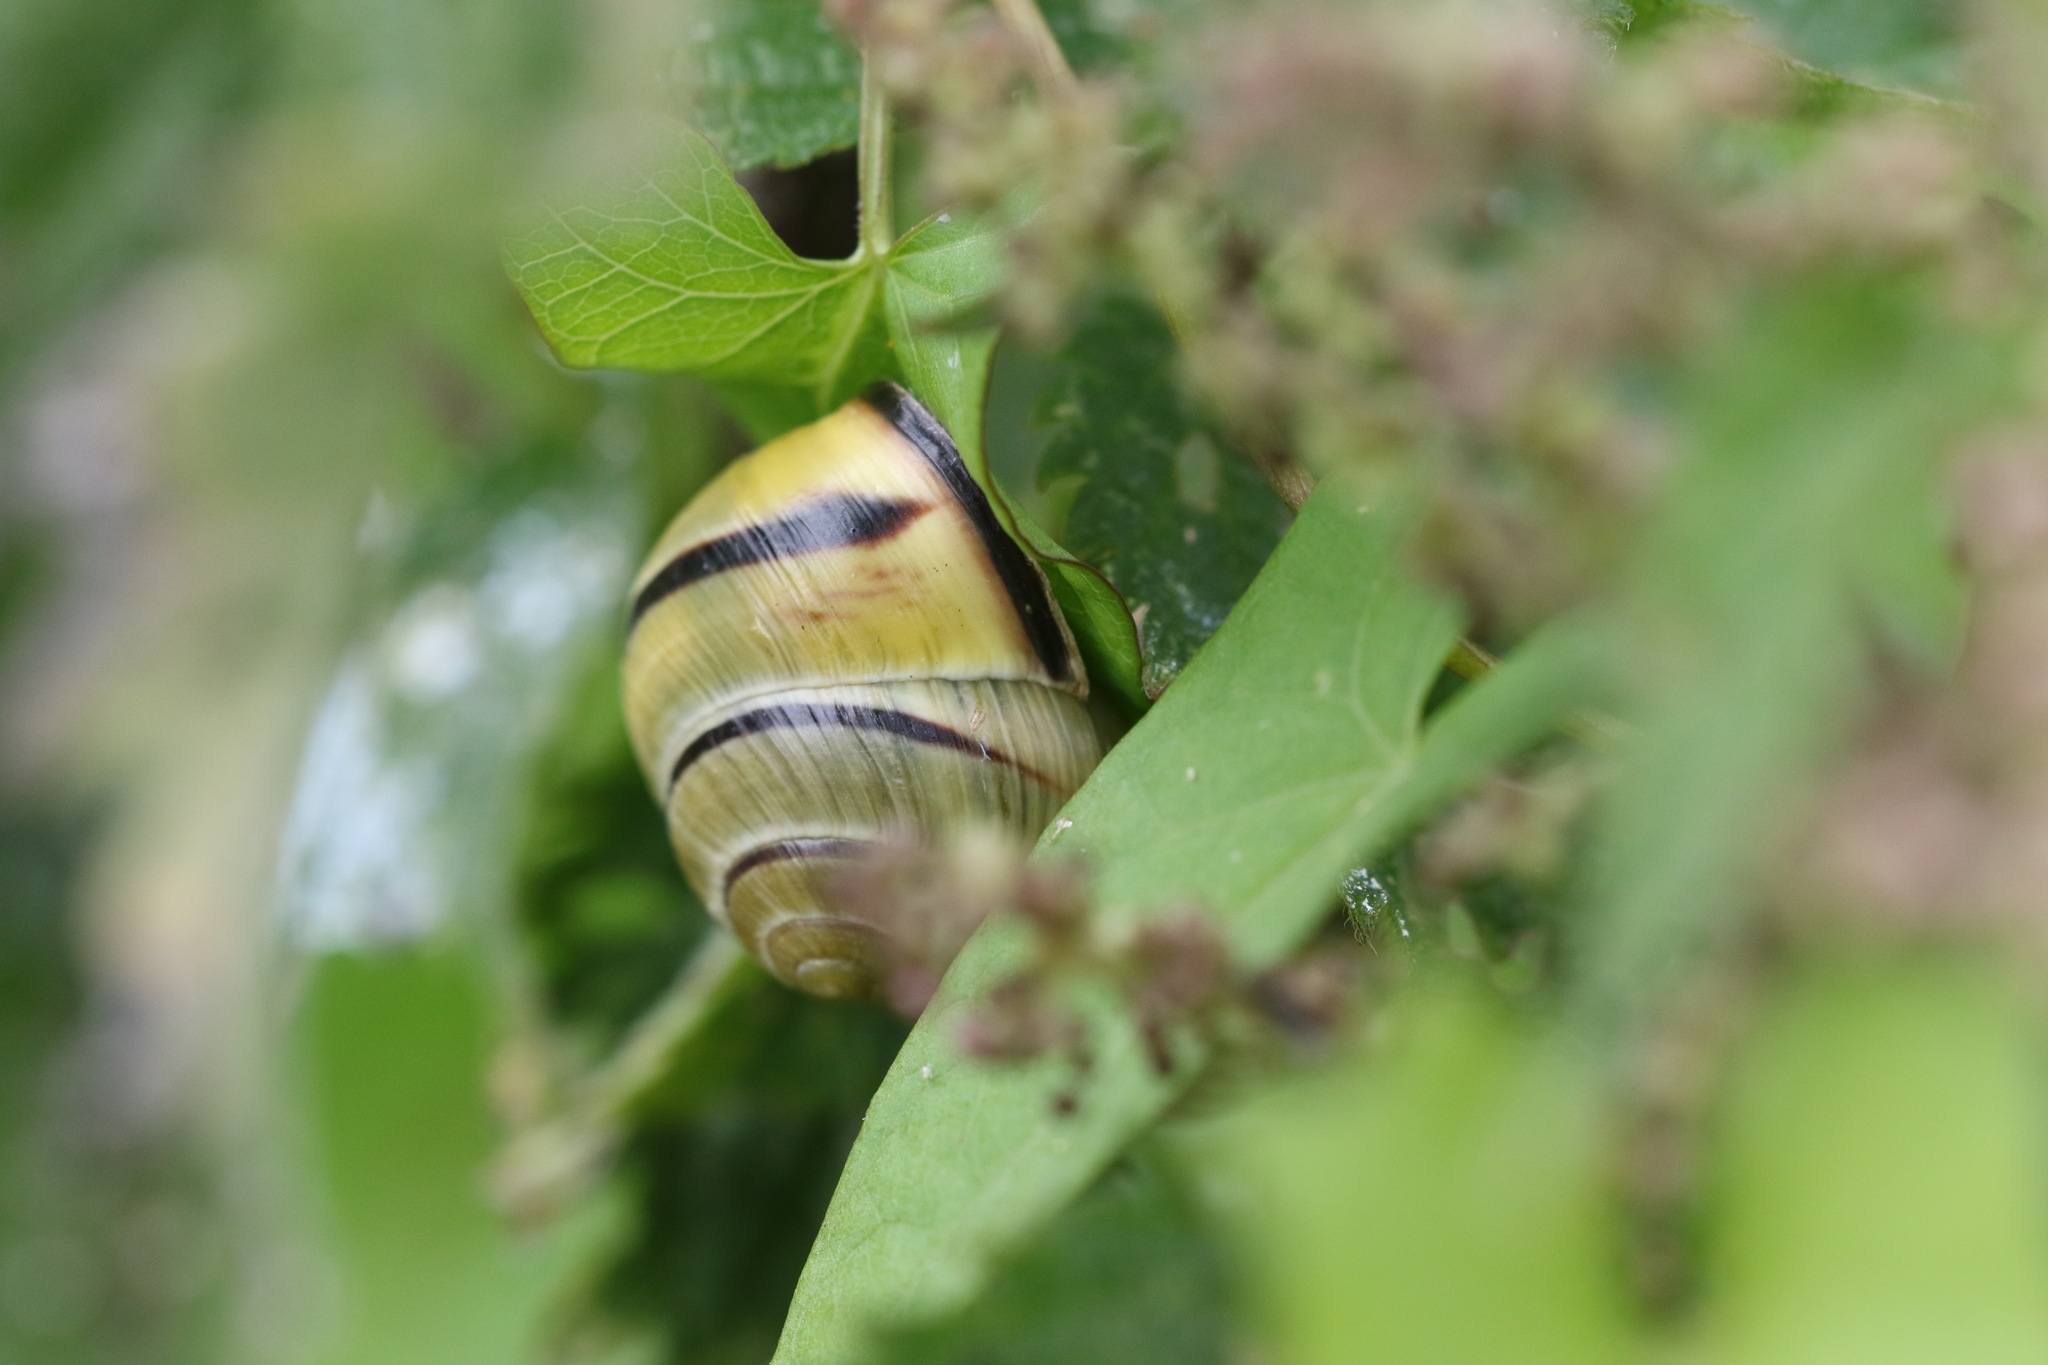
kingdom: Animalia
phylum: Mollusca
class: Gastropoda
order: Stylommatophora
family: Helicidae
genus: Cepaea
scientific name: Cepaea nemoralis
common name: Grovesnail
